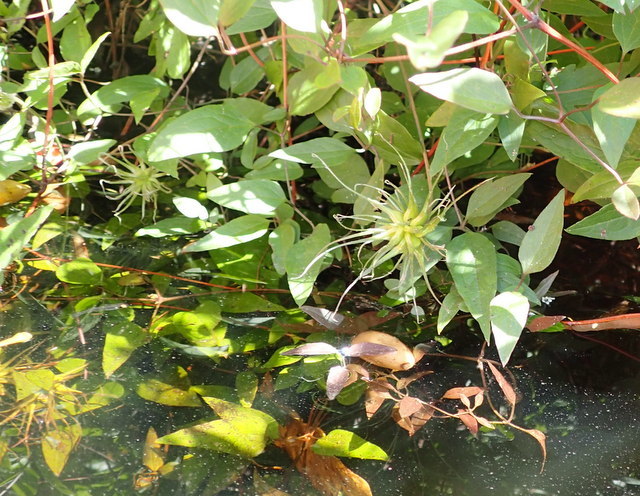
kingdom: Plantae
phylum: Tracheophyta
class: Magnoliopsida
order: Ranunculales
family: Ranunculaceae
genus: Clematis
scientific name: Clematis crispa
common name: Curly clematis
